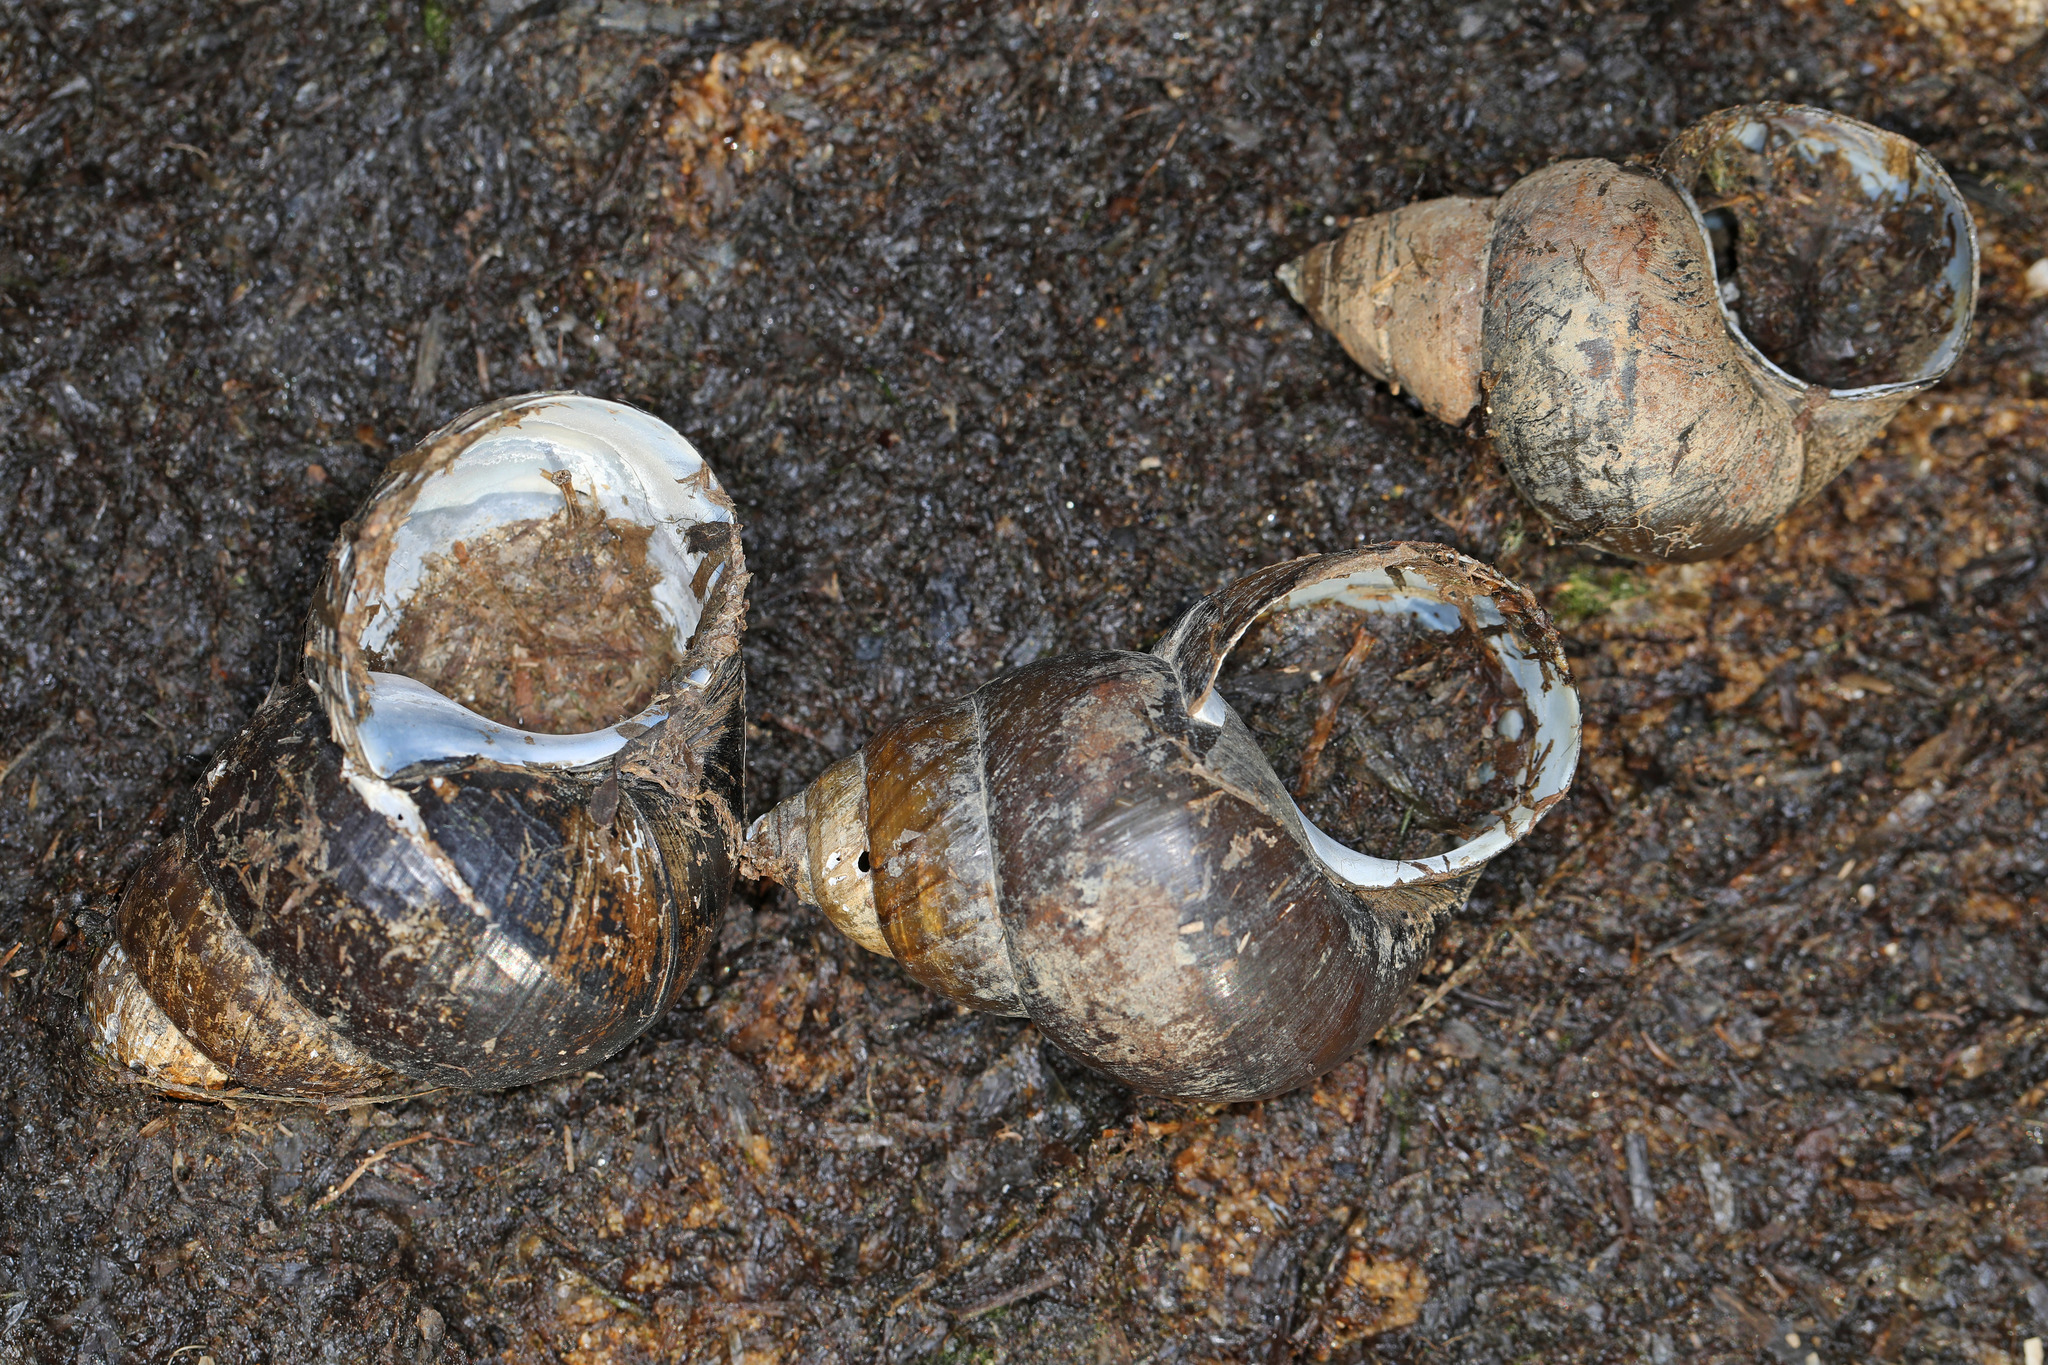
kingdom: Animalia
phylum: Mollusca
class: Gastropoda
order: Architaenioglossa
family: Viviparidae
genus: Cipangopaludina
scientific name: Cipangopaludina chinensis
